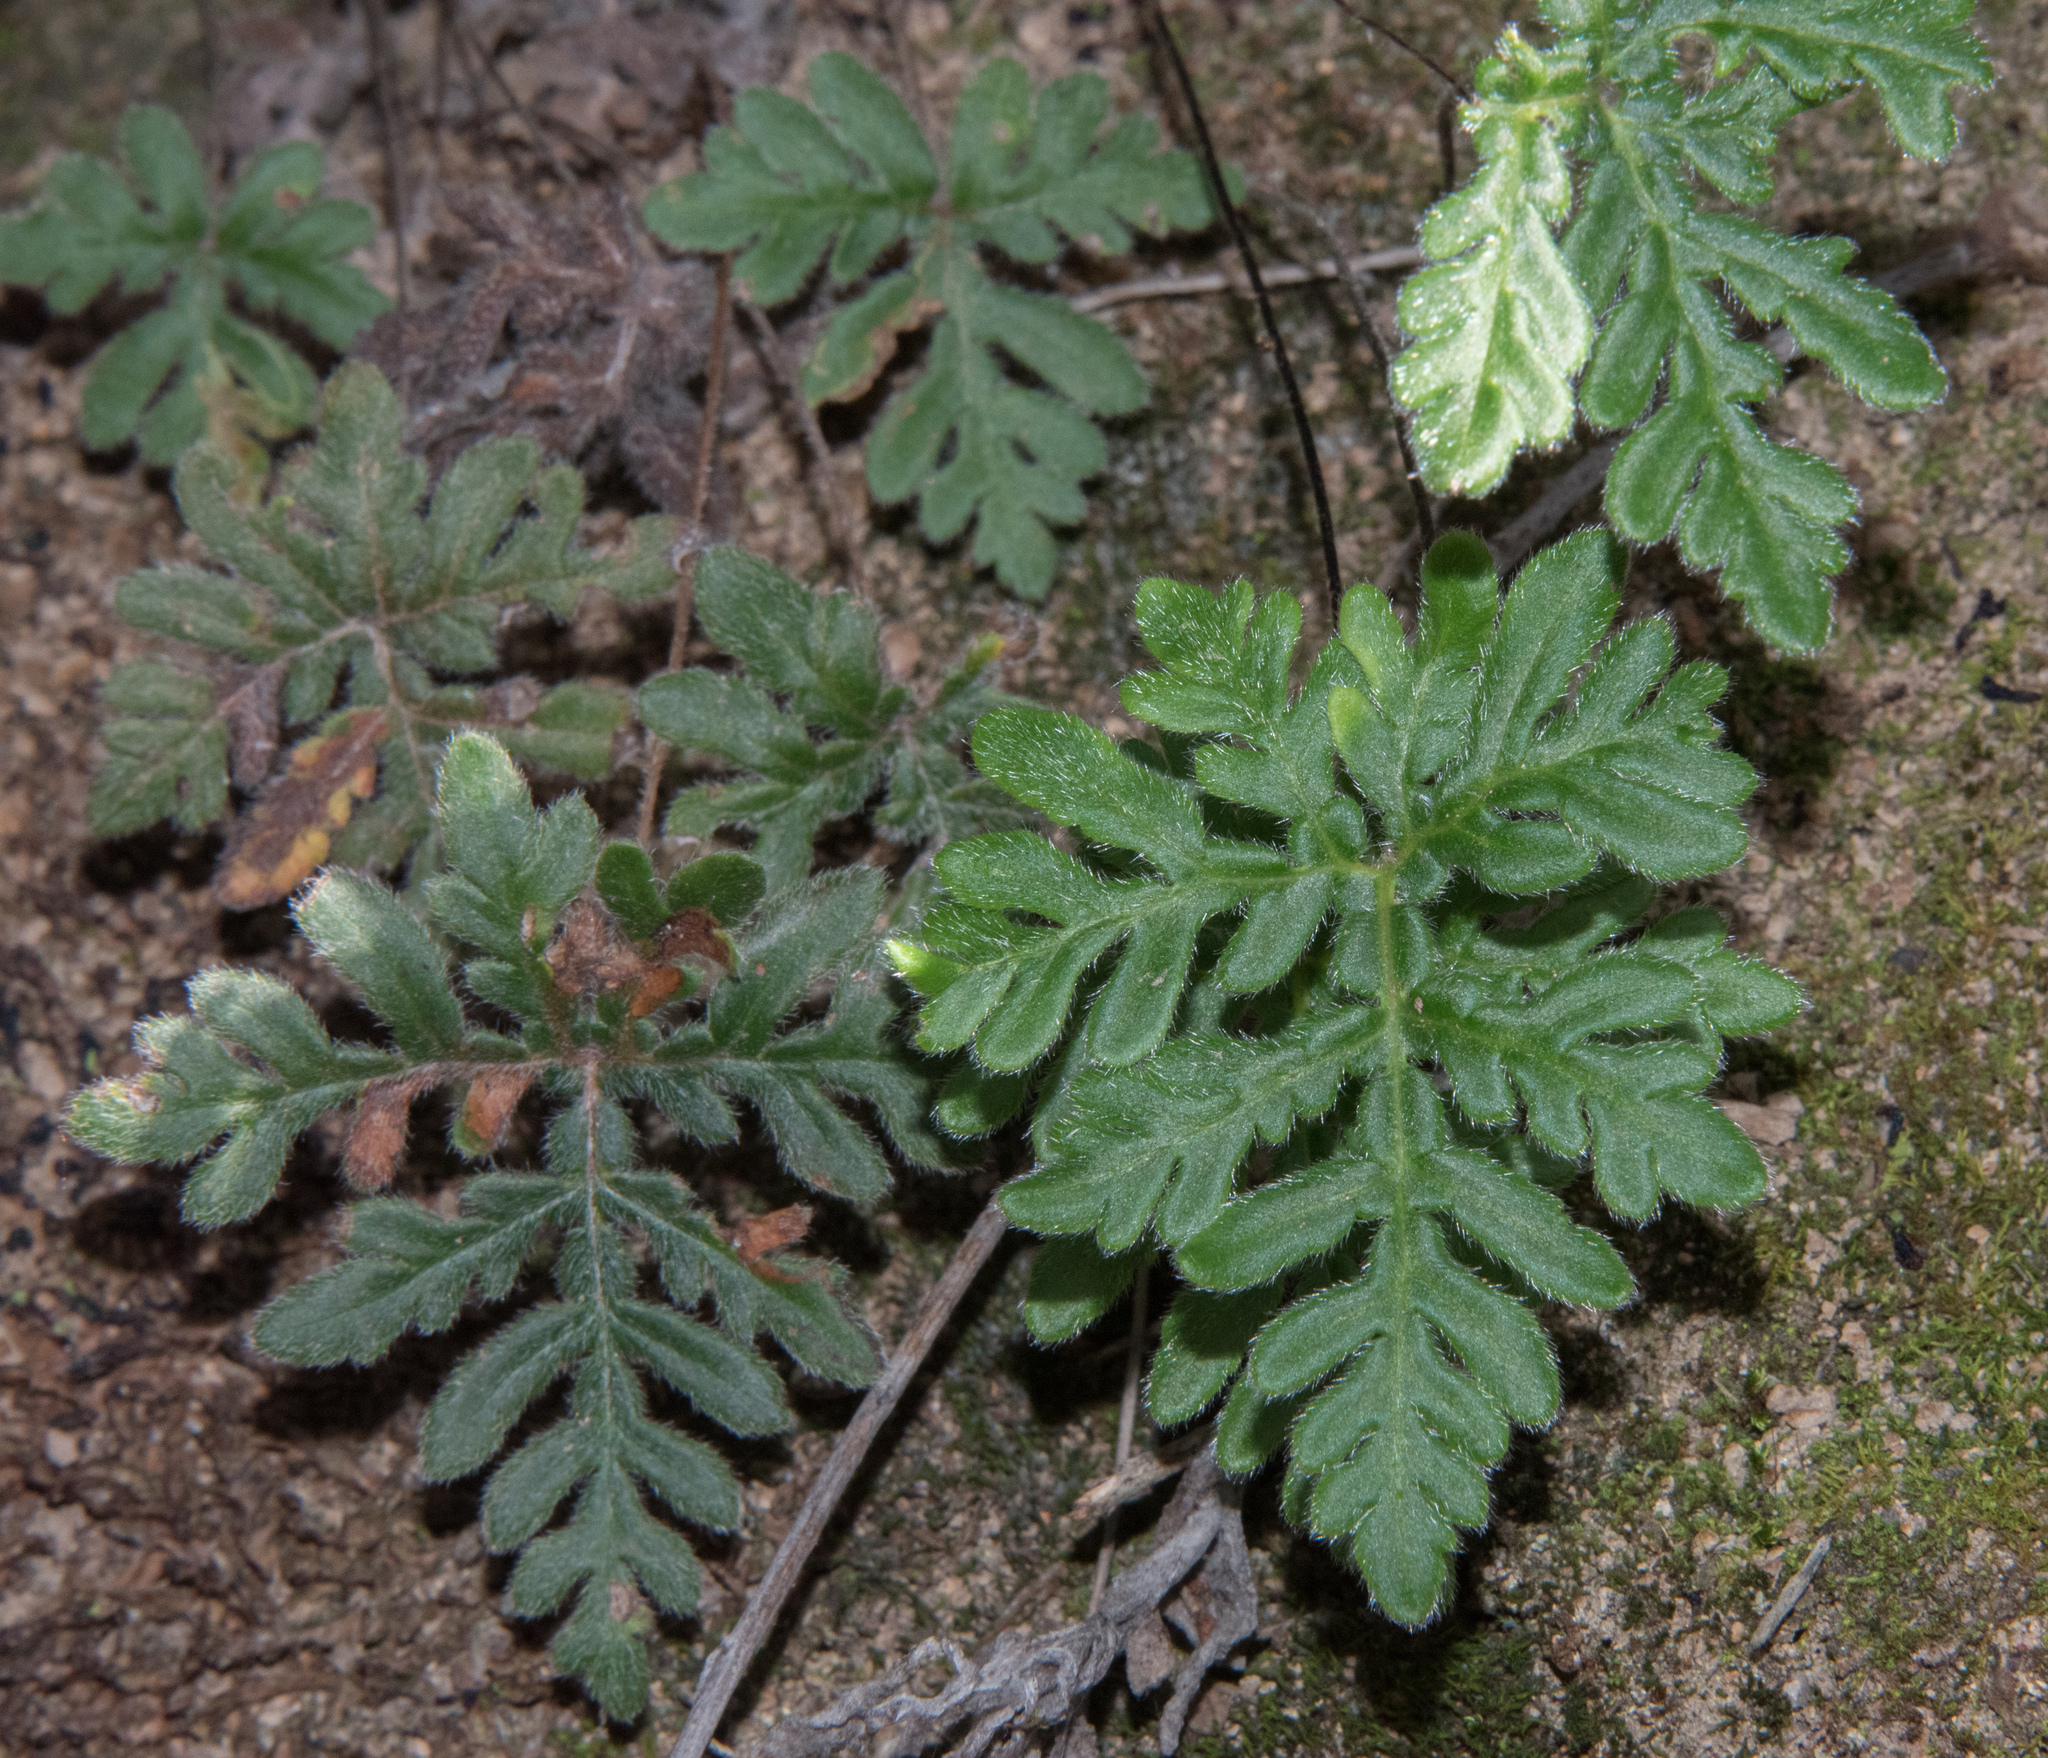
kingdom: Plantae
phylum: Tracheophyta
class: Polypodiopsida
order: Polypodiales
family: Pteridaceae
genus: Bommeria
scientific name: Bommeria hispida
